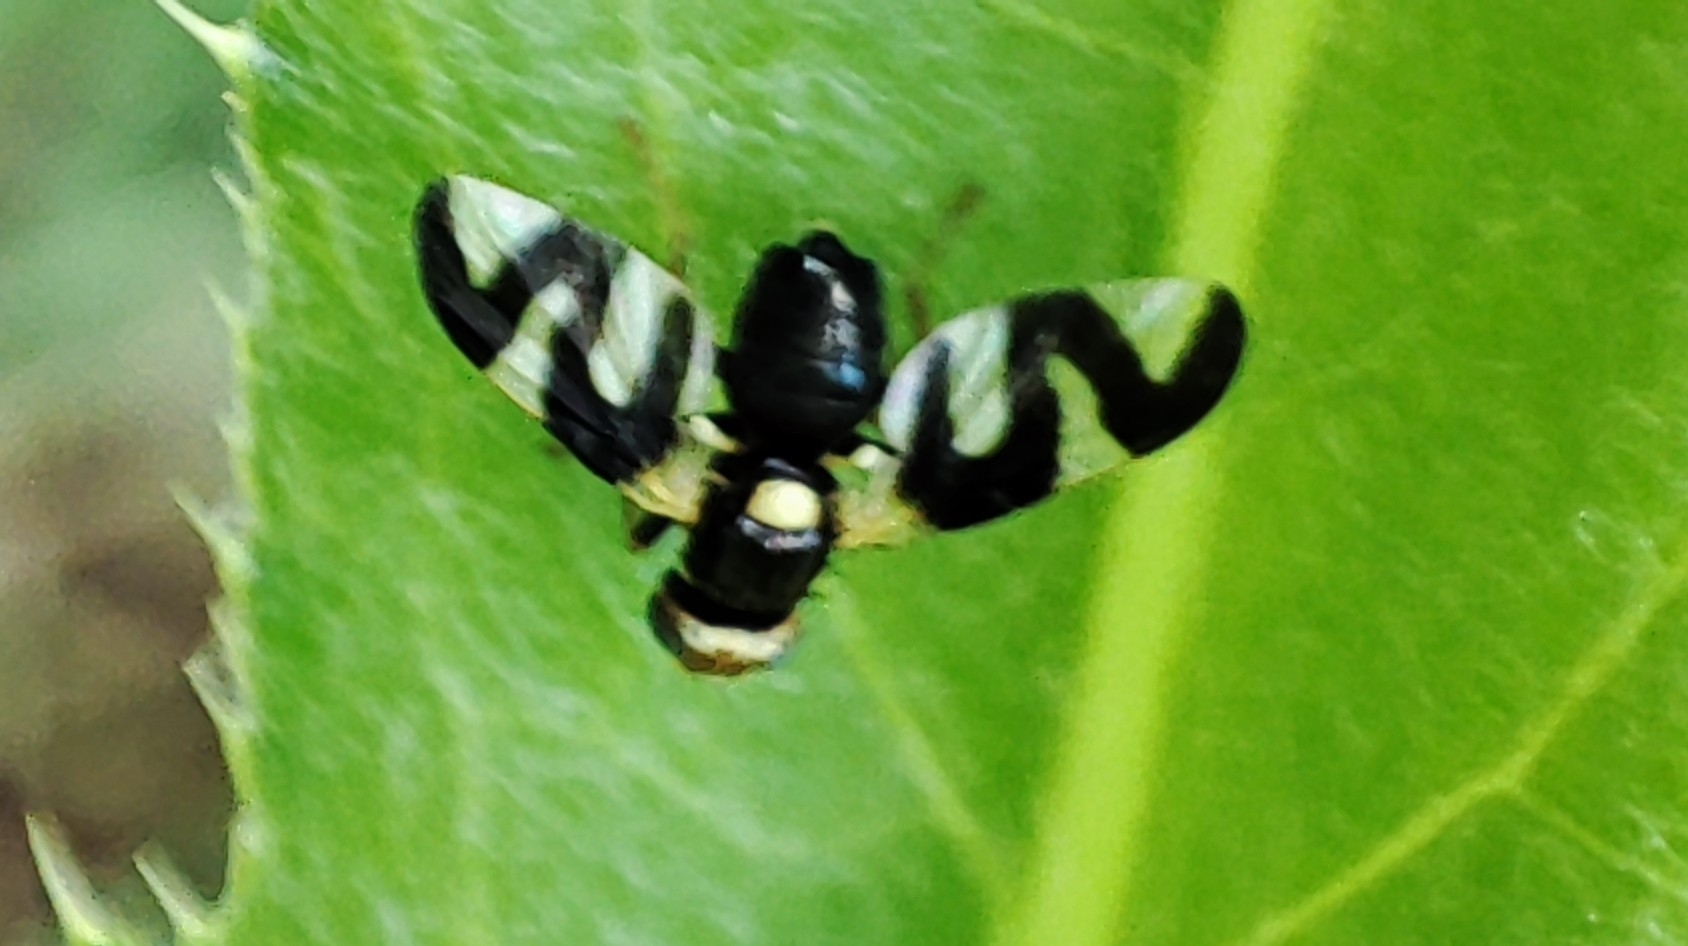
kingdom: Animalia
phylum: Arthropoda
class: Insecta
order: Diptera
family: Tephritidae
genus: Urophora
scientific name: Urophora cardui
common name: Fruit fly
